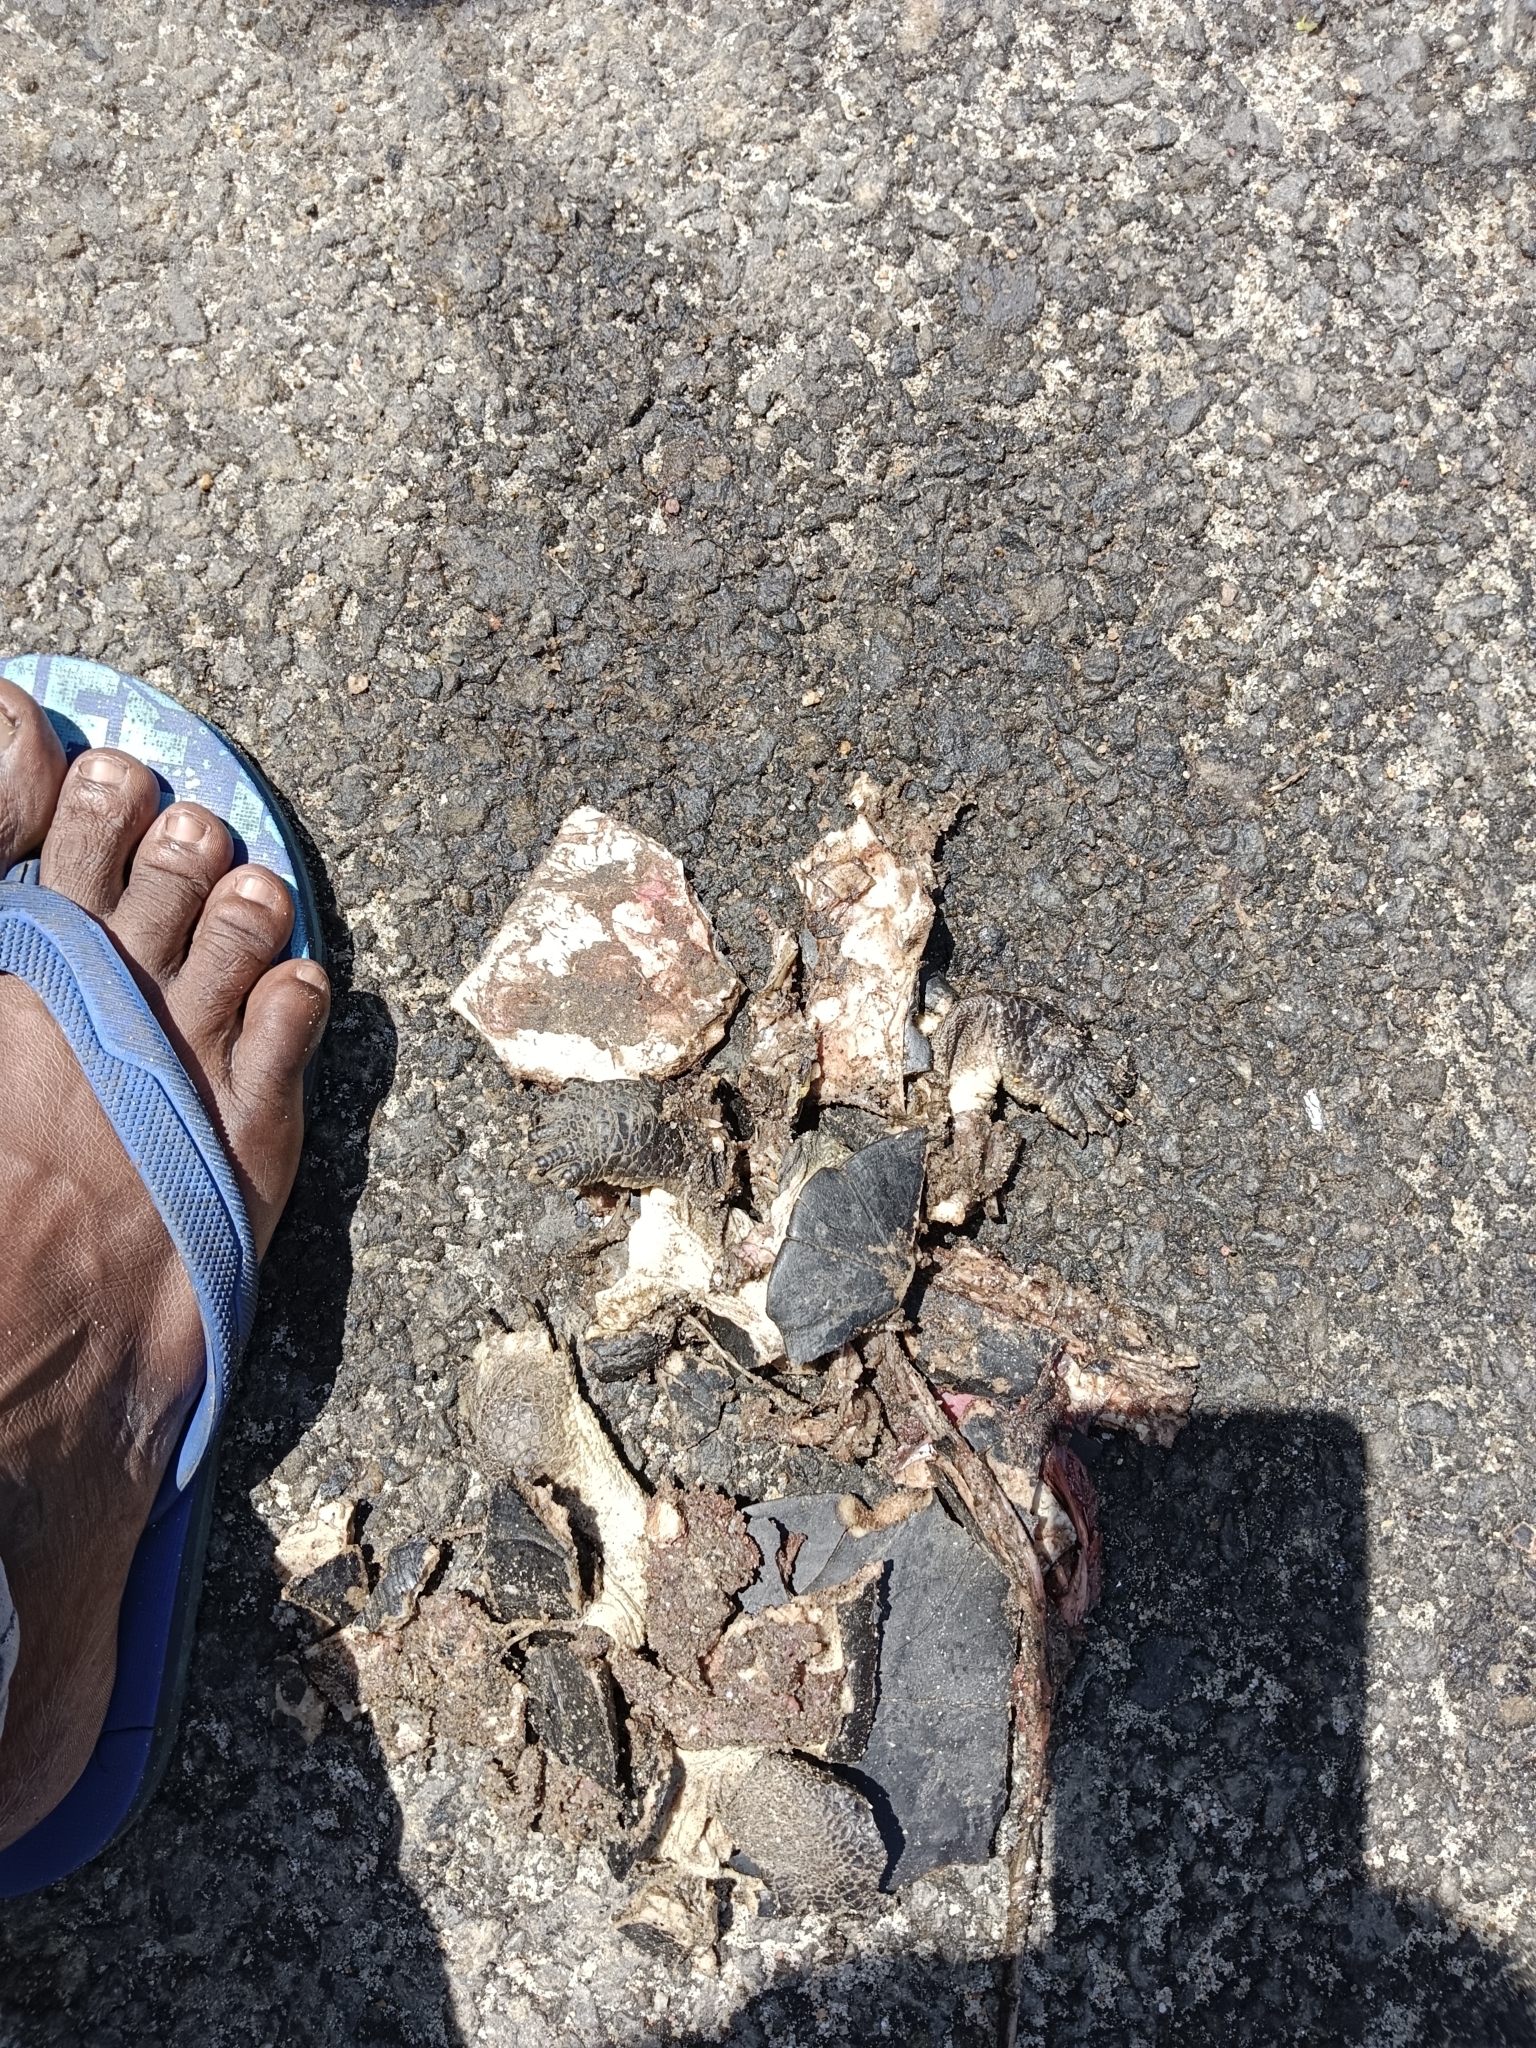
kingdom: Animalia
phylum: Chordata
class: Testudines
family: Geoemydidae
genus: Melanochelys
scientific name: Melanochelys trijuga
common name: Indian black turtle
